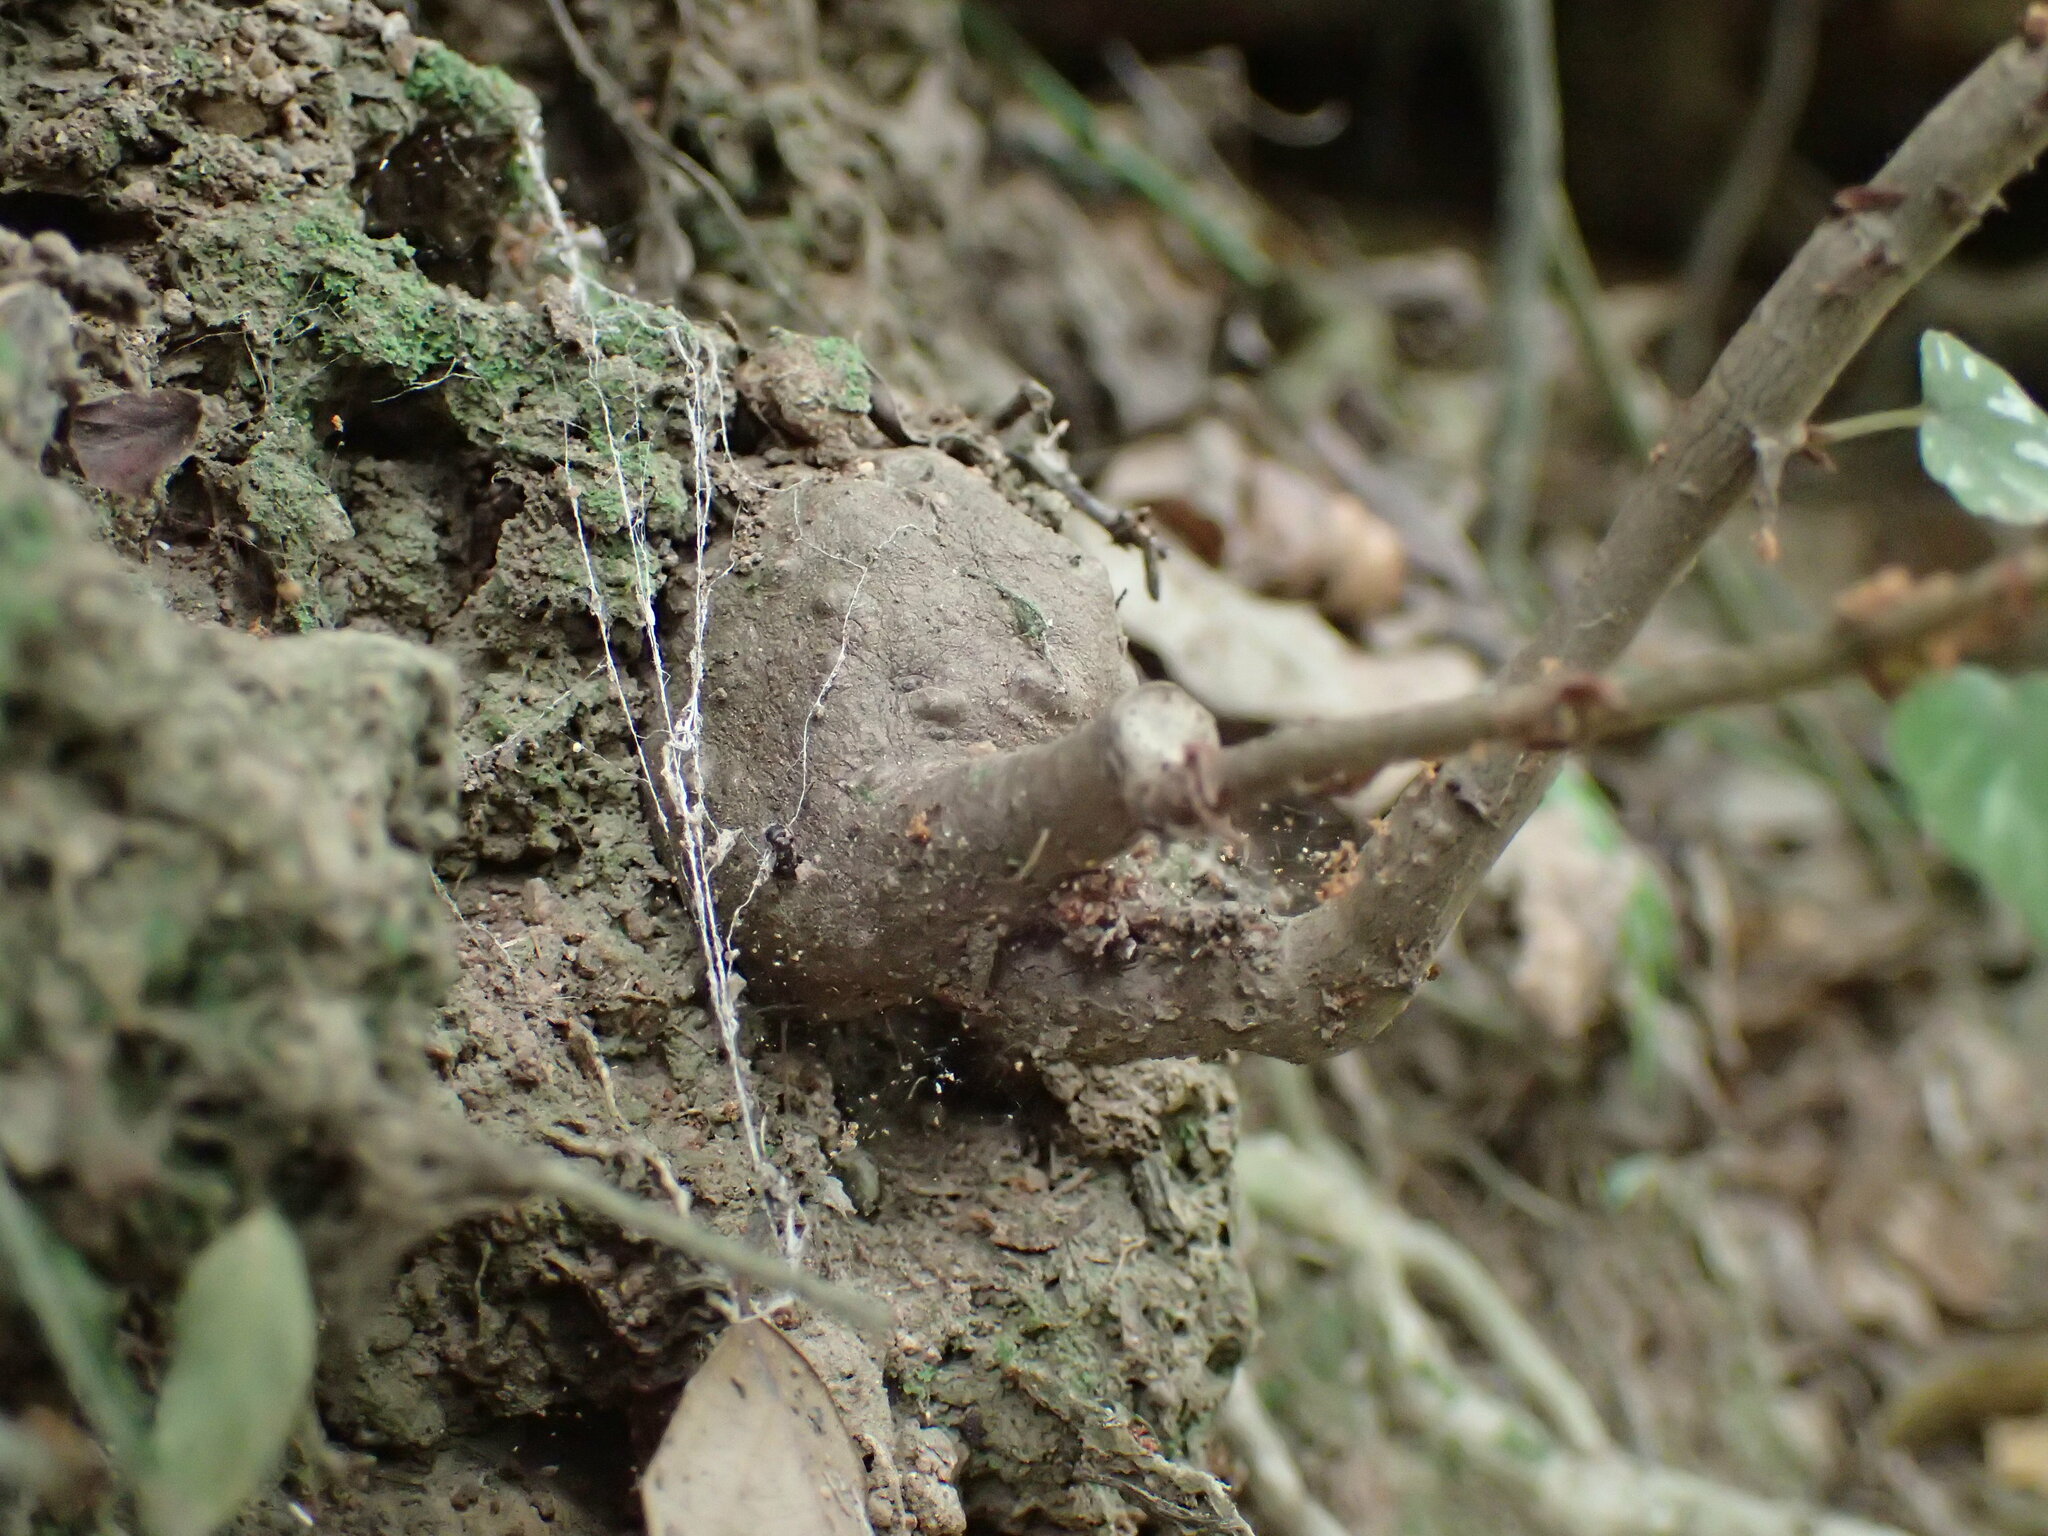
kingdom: Plantae
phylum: Tracheophyta
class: Magnoliopsida
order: Cucurbitales
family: Begoniaceae
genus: Begonia
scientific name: Begonia homonyma
